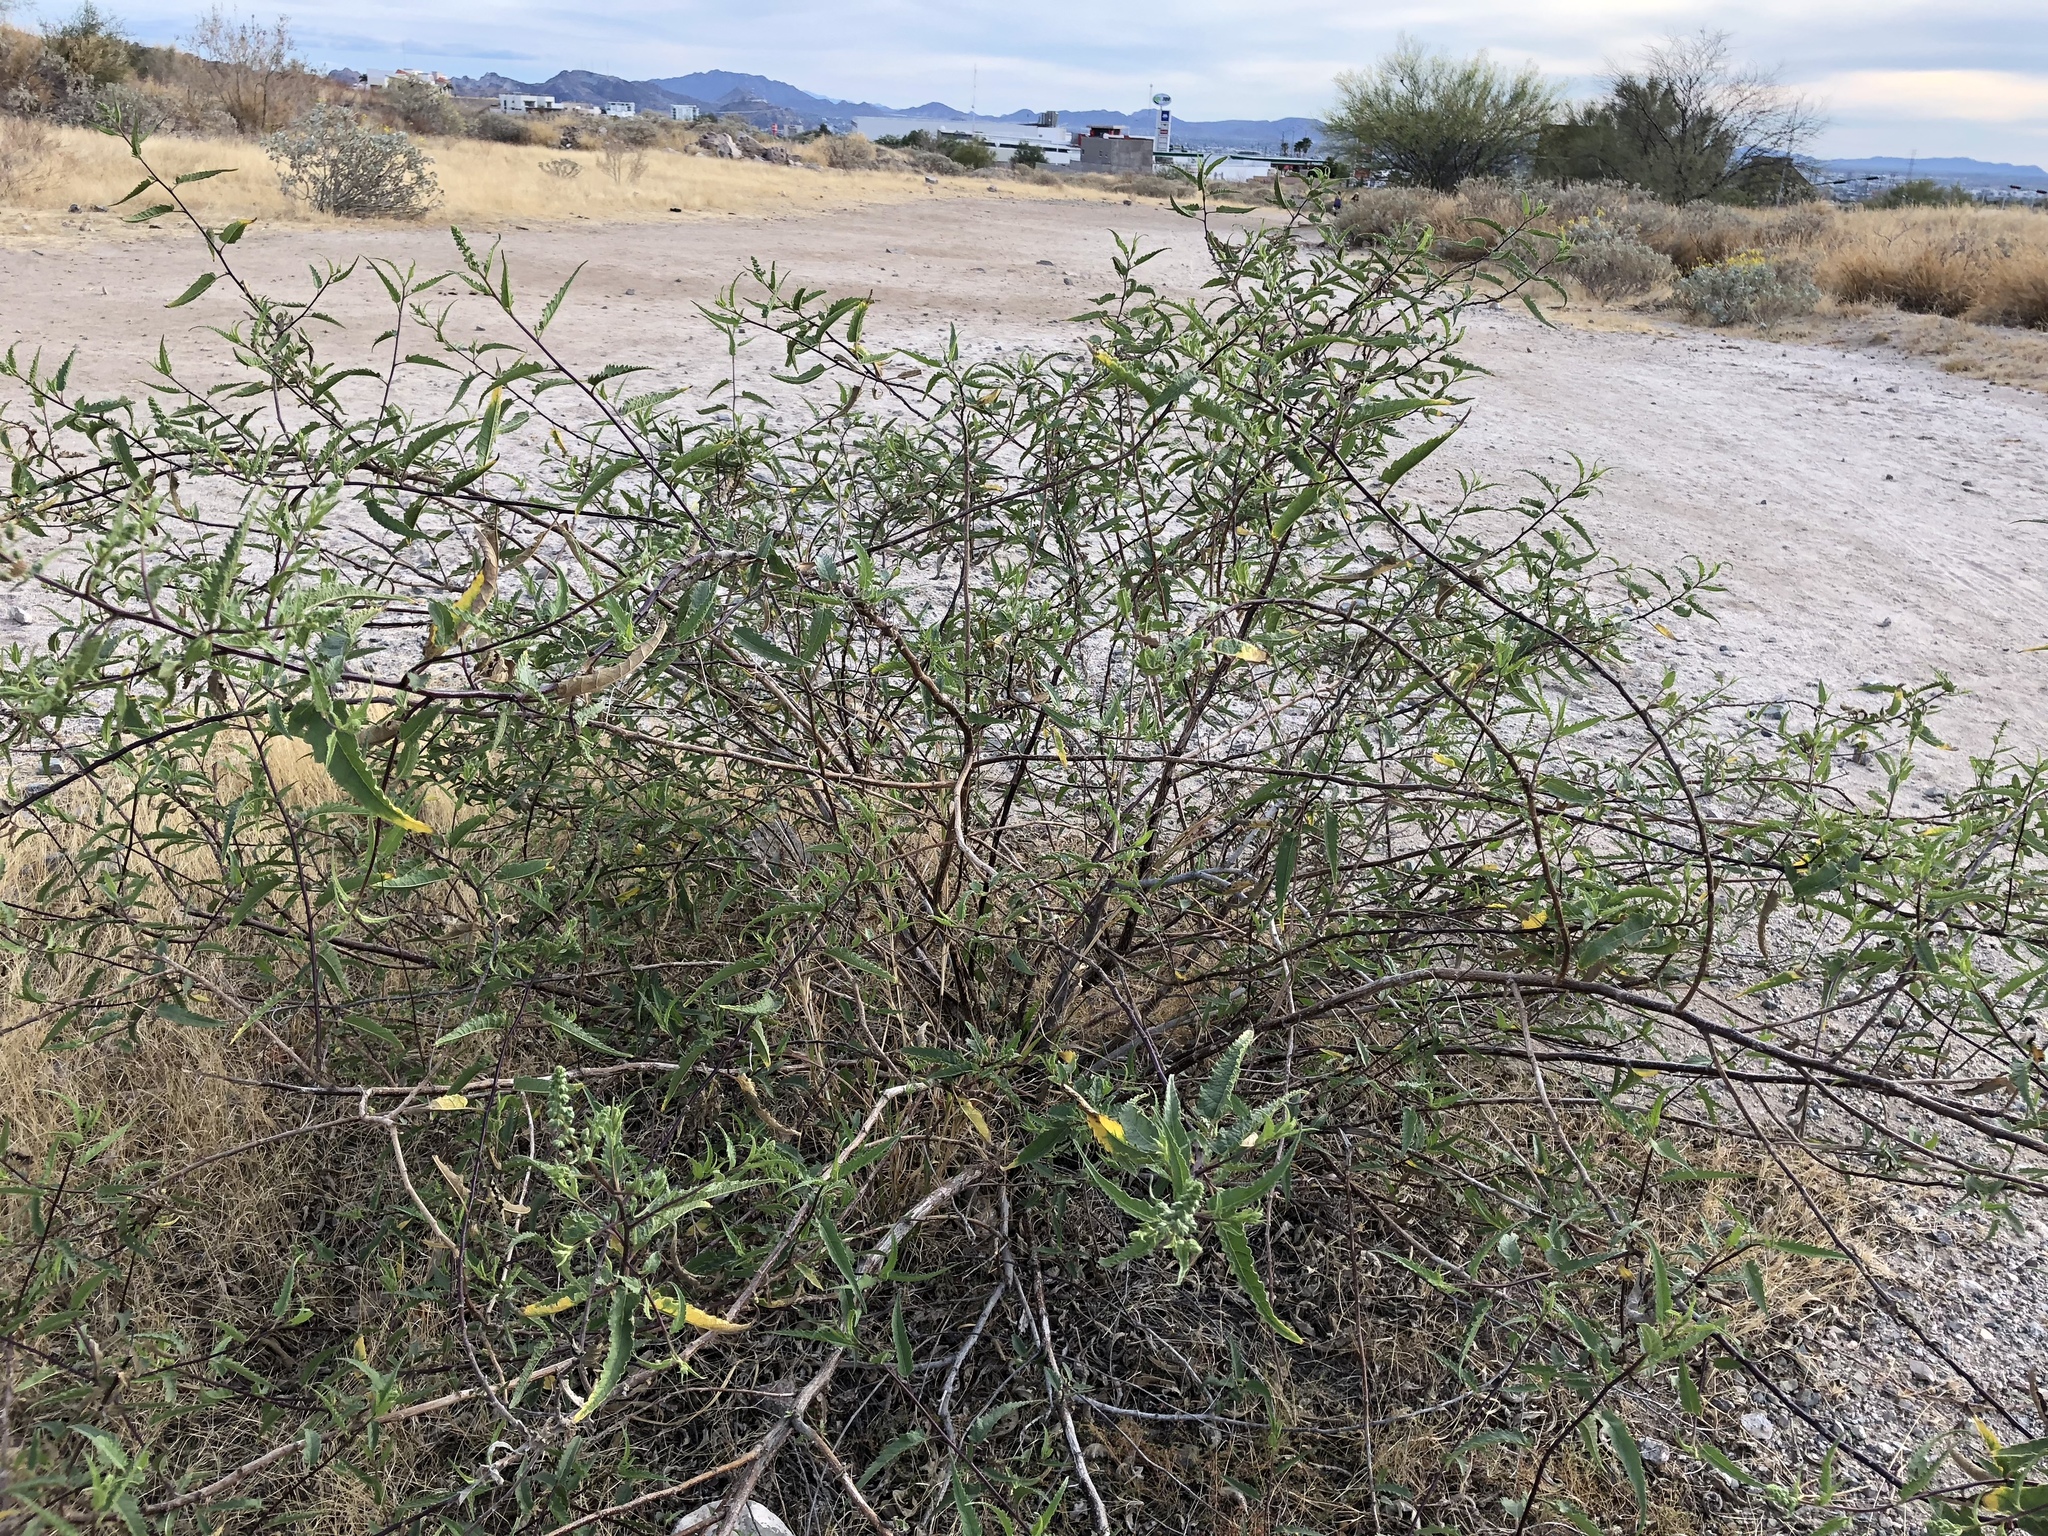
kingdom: Plantae
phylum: Tracheophyta
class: Magnoliopsida
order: Asterales
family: Asteraceae
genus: Ambrosia
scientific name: Ambrosia ambrosioides
